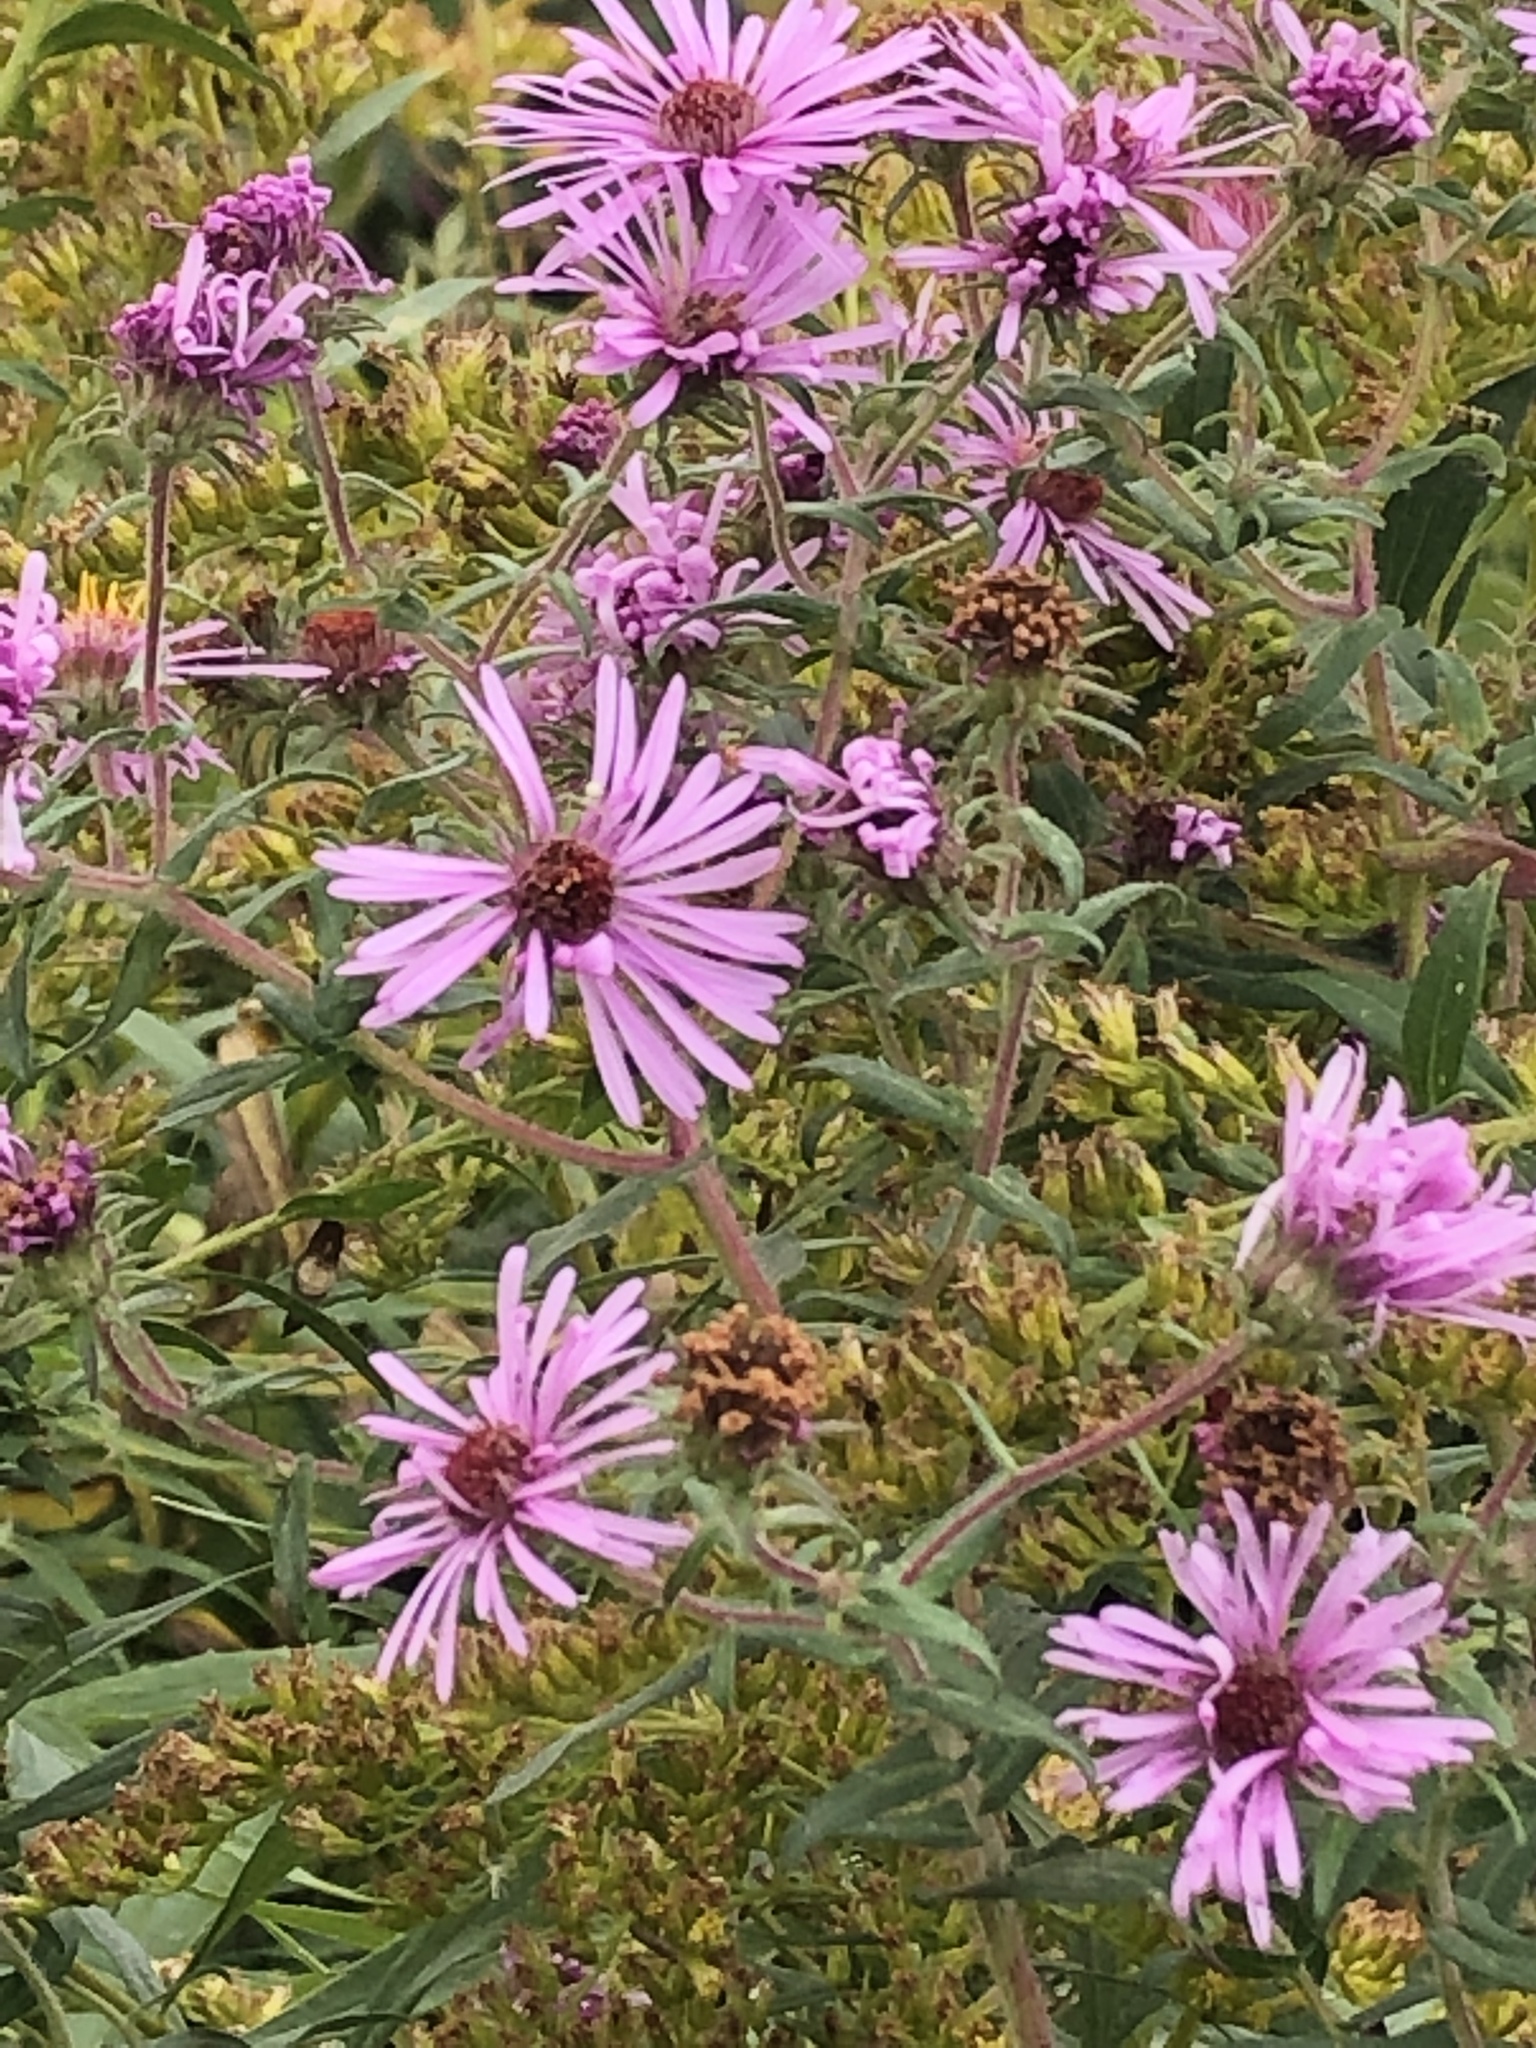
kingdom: Plantae
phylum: Tracheophyta
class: Magnoliopsida
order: Asterales
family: Asteraceae
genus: Symphyotrichum
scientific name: Symphyotrichum novae-angliae
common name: Michaelmas daisy
